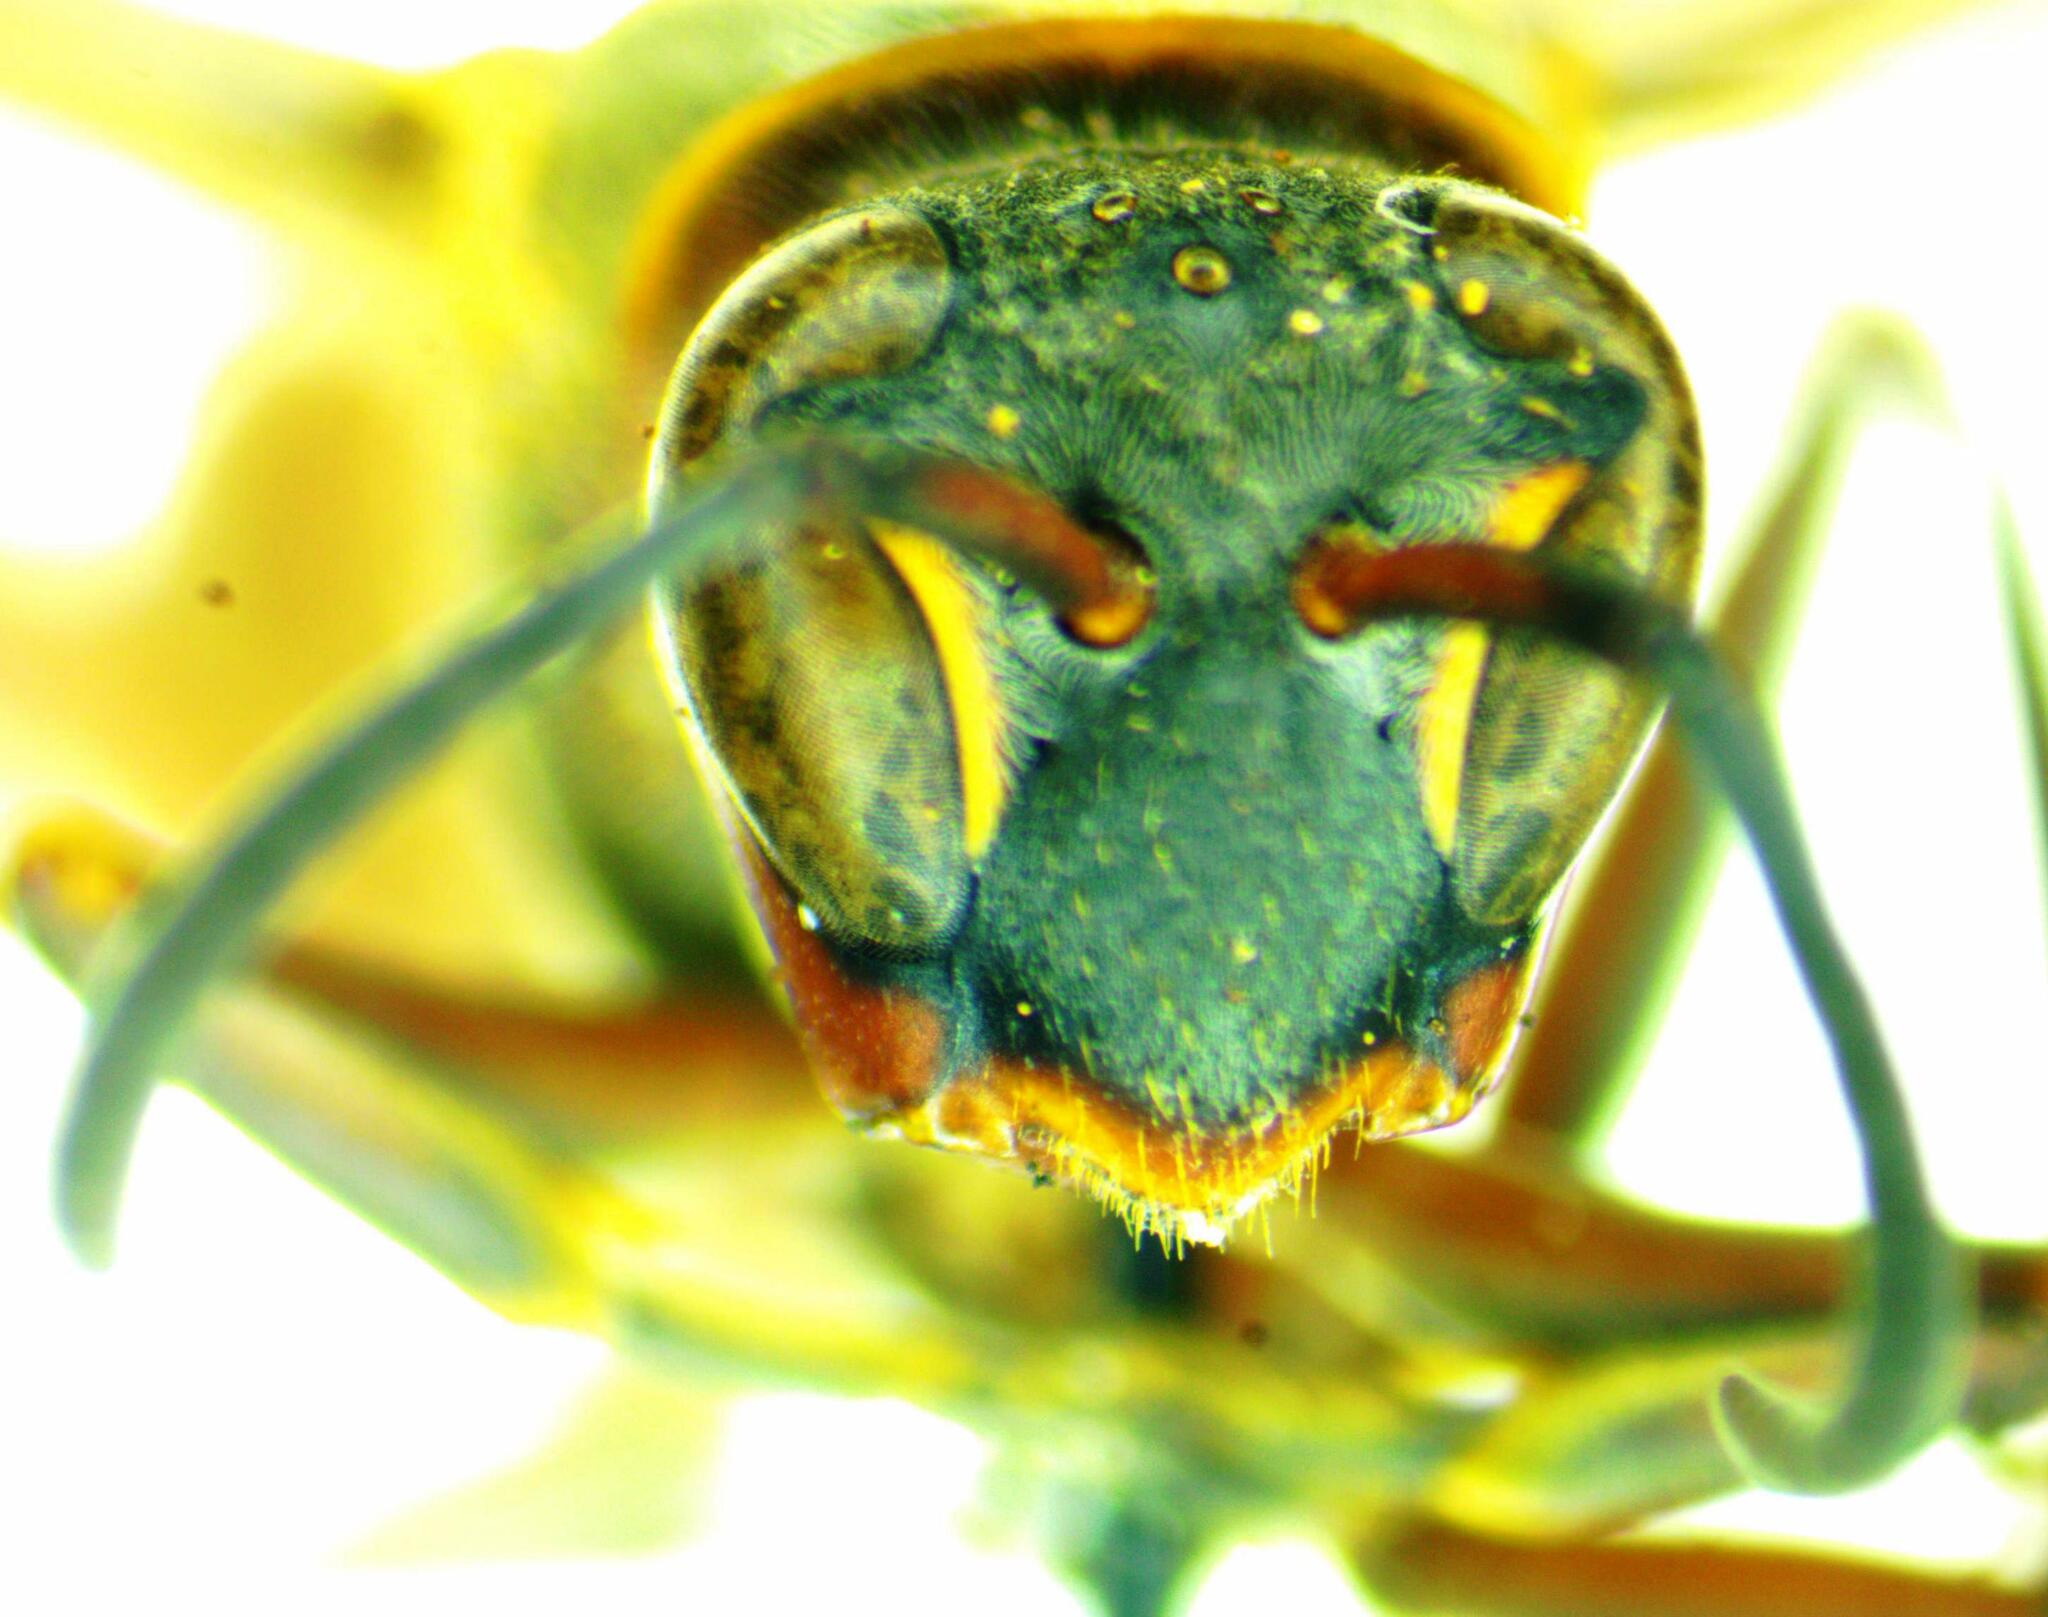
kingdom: Animalia
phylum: Arthropoda
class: Insecta
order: Hymenoptera
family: Eumenidae
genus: Polistes
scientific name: Polistes occipitalis
